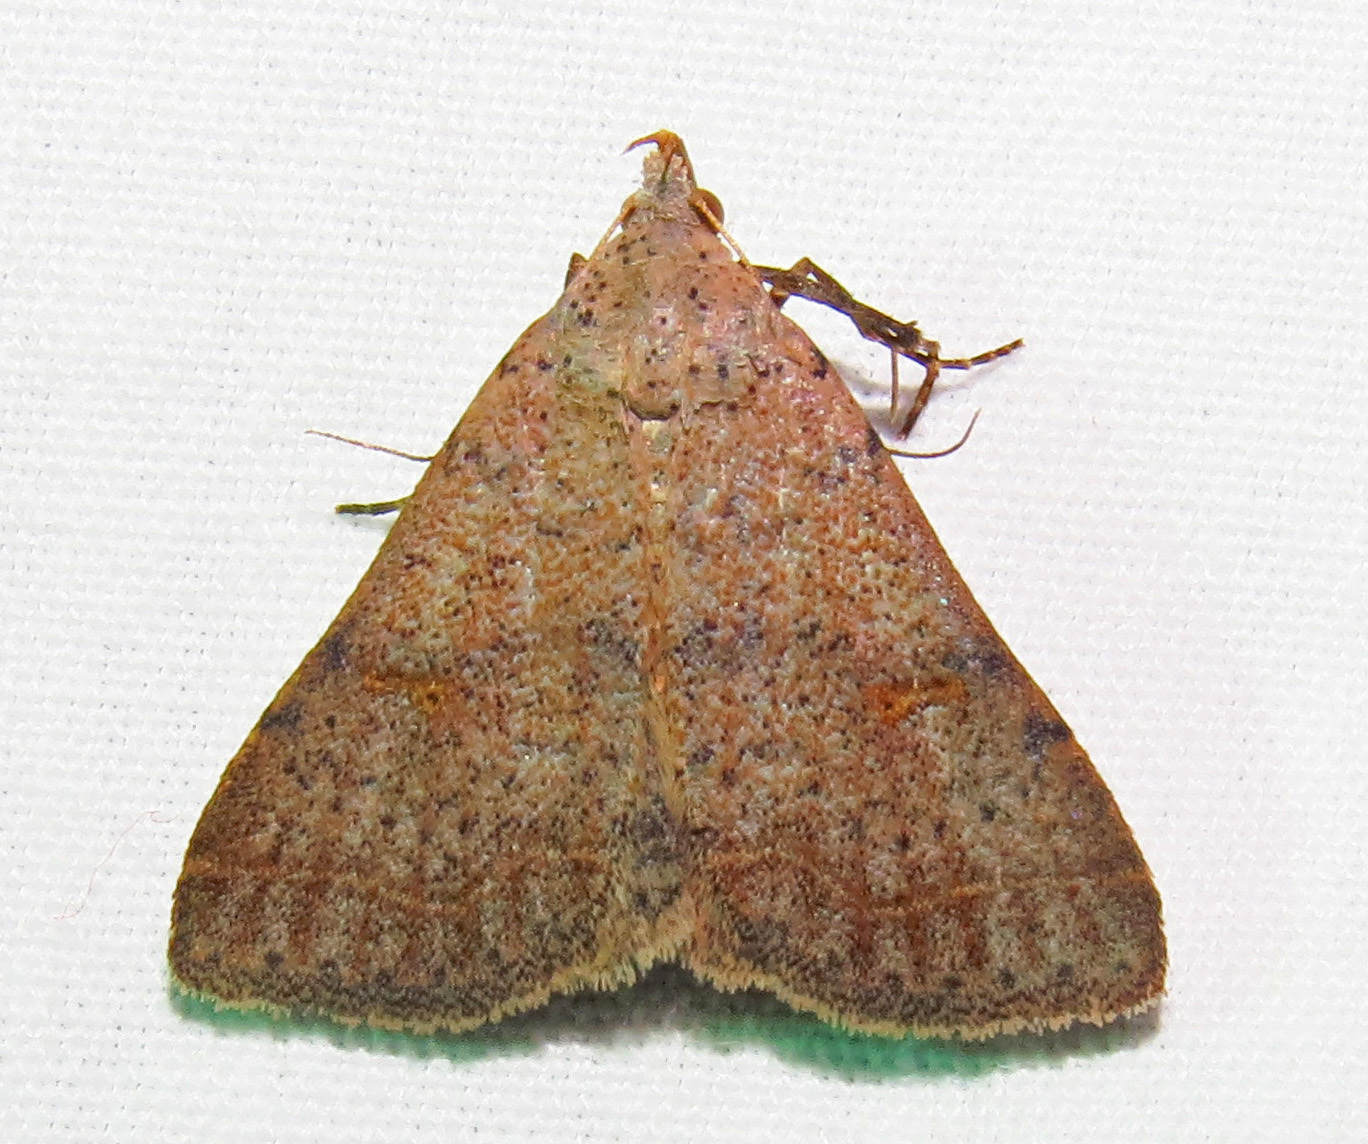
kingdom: Animalia
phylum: Arthropoda
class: Insecta
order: Lepidoptera
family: Erebidae
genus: Bleptina
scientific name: Bleptina caradrinalis
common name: Bent-winged owlet
